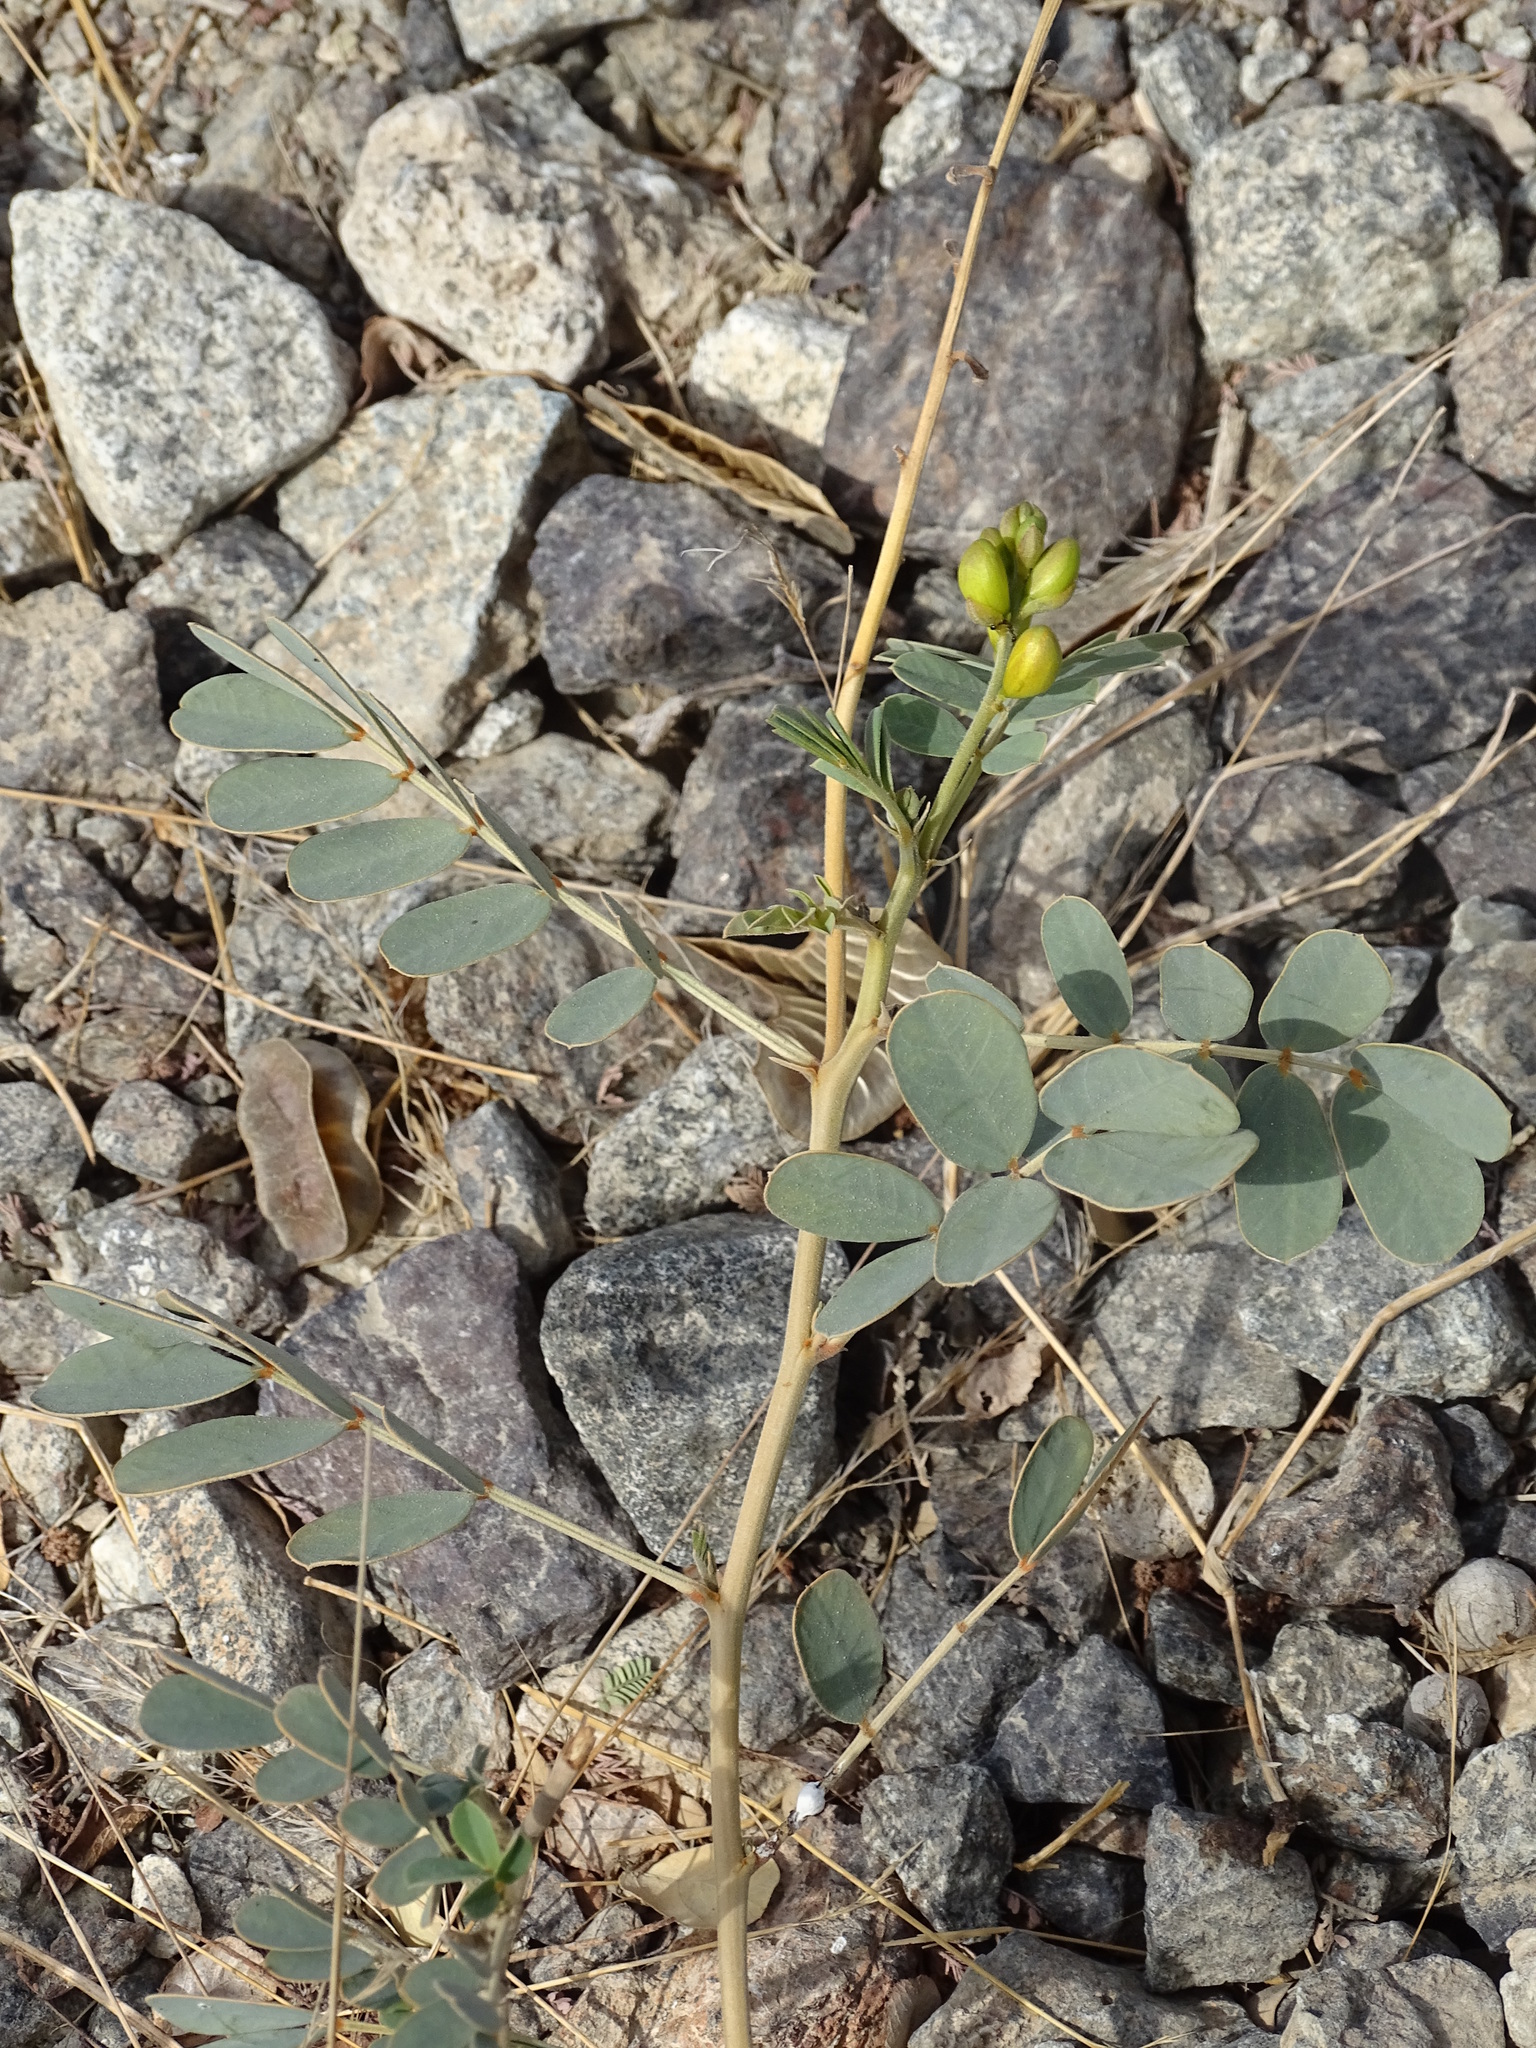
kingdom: Plantae
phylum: Tracheophyta
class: Magnoliopsida
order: Fabales
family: Fabaceae
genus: Senna
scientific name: Senna italica
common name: Port royal senna
